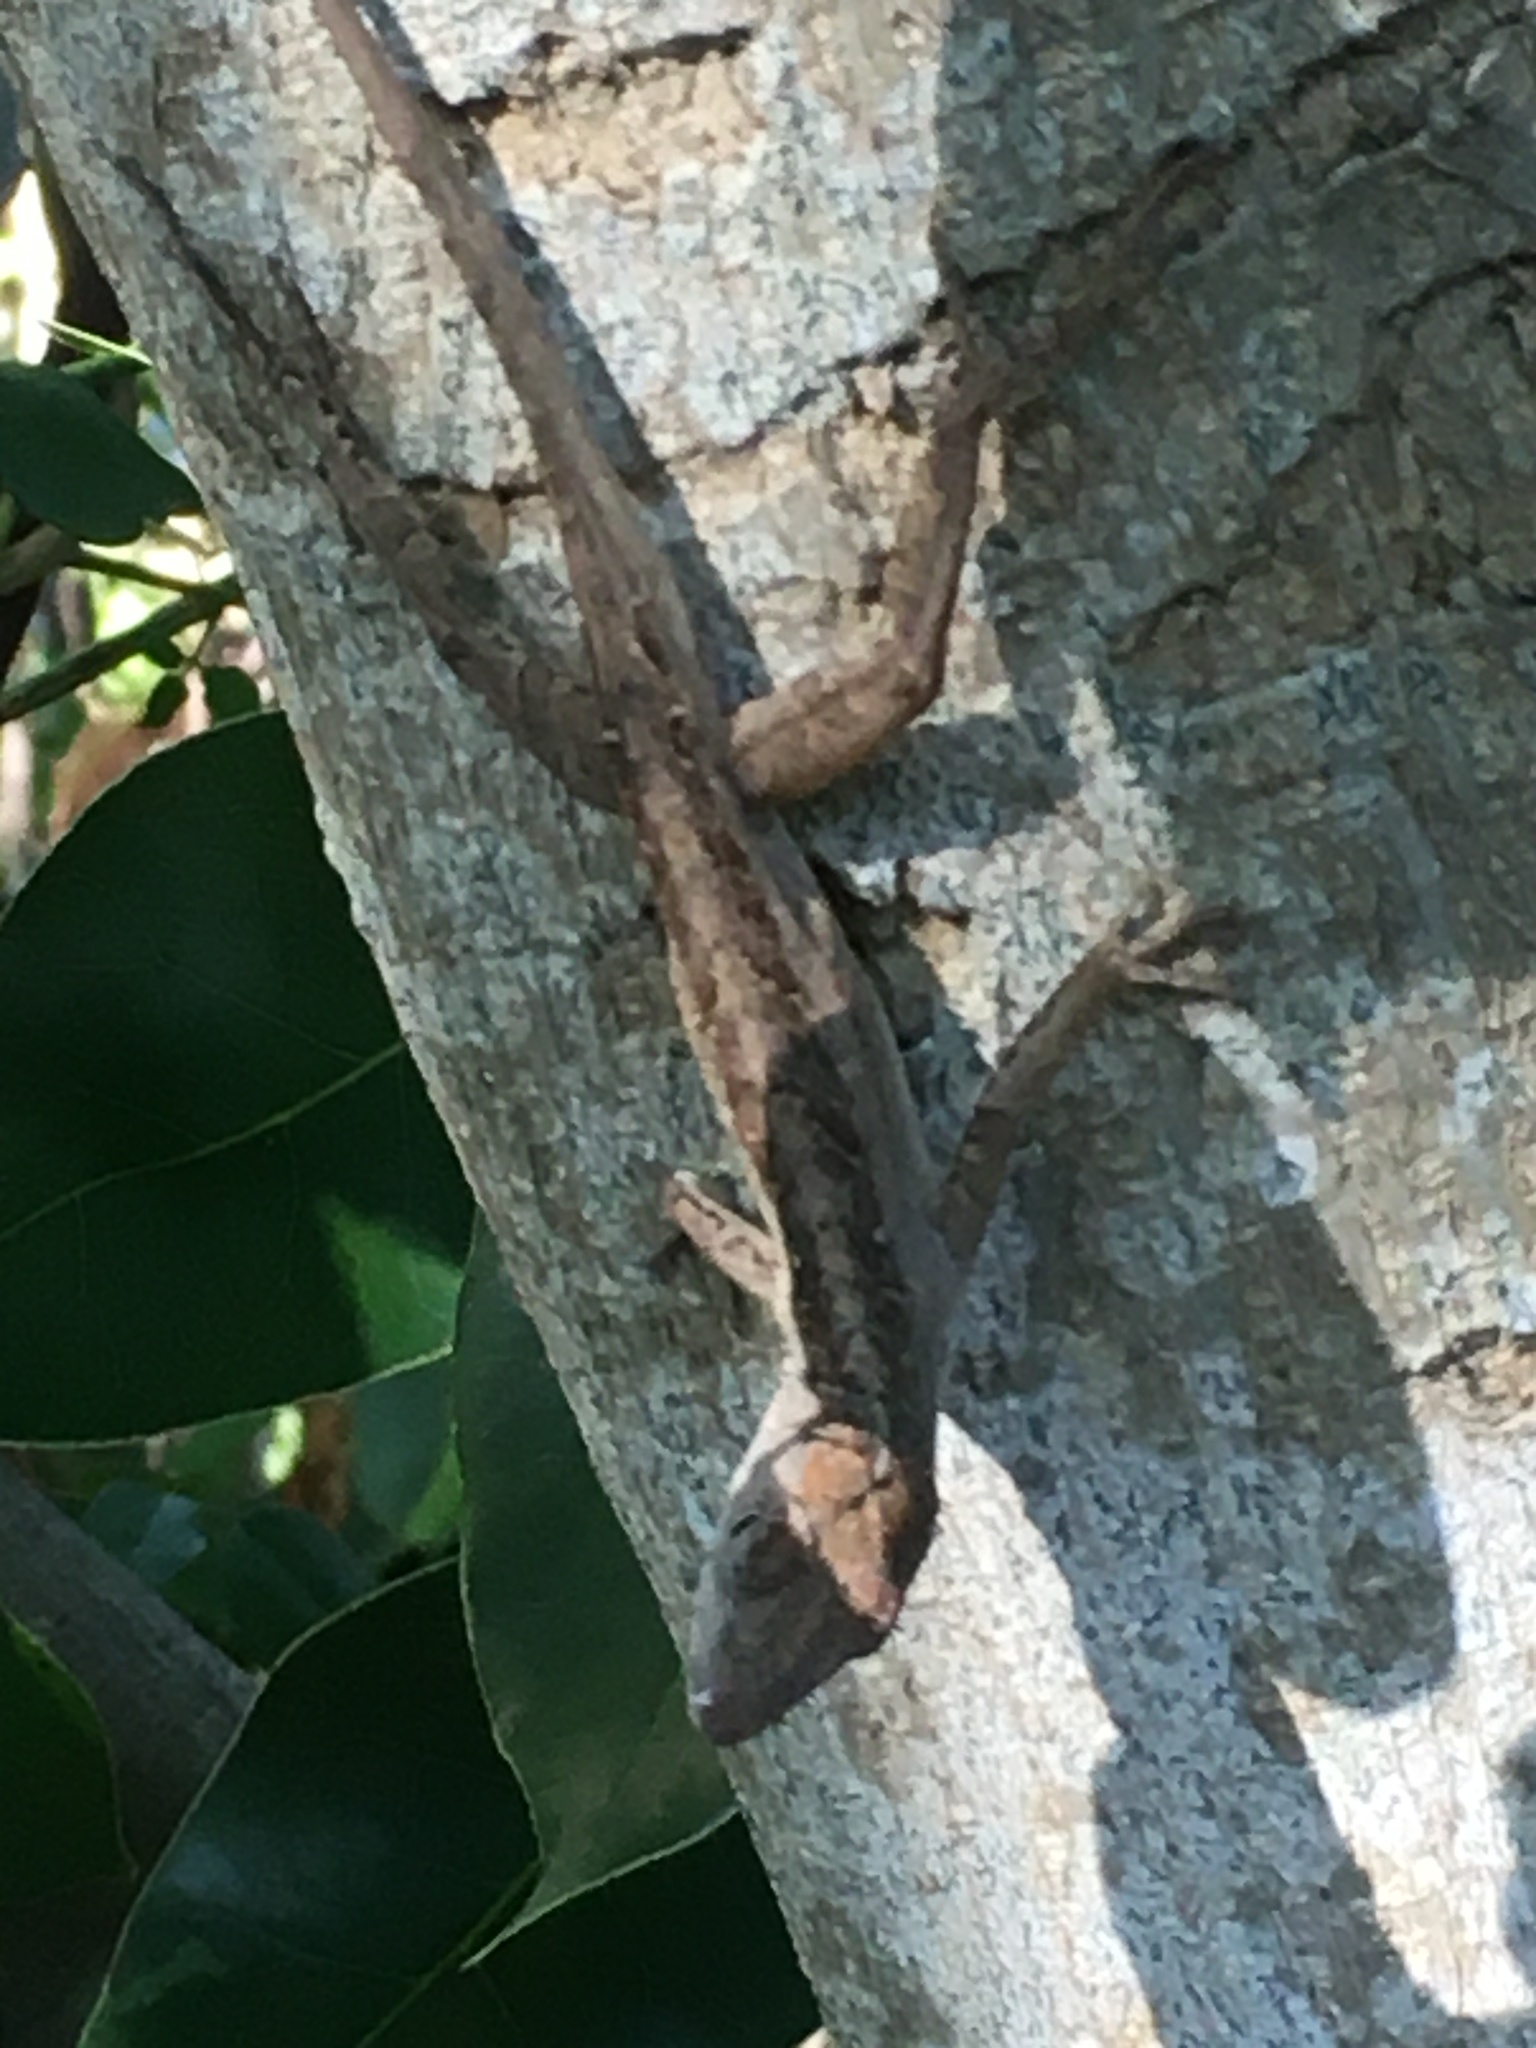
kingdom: Animalia
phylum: Chordata
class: Squamata
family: Dactyloidae
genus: Anolis
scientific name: Anolis sagrei
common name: Brown anole
